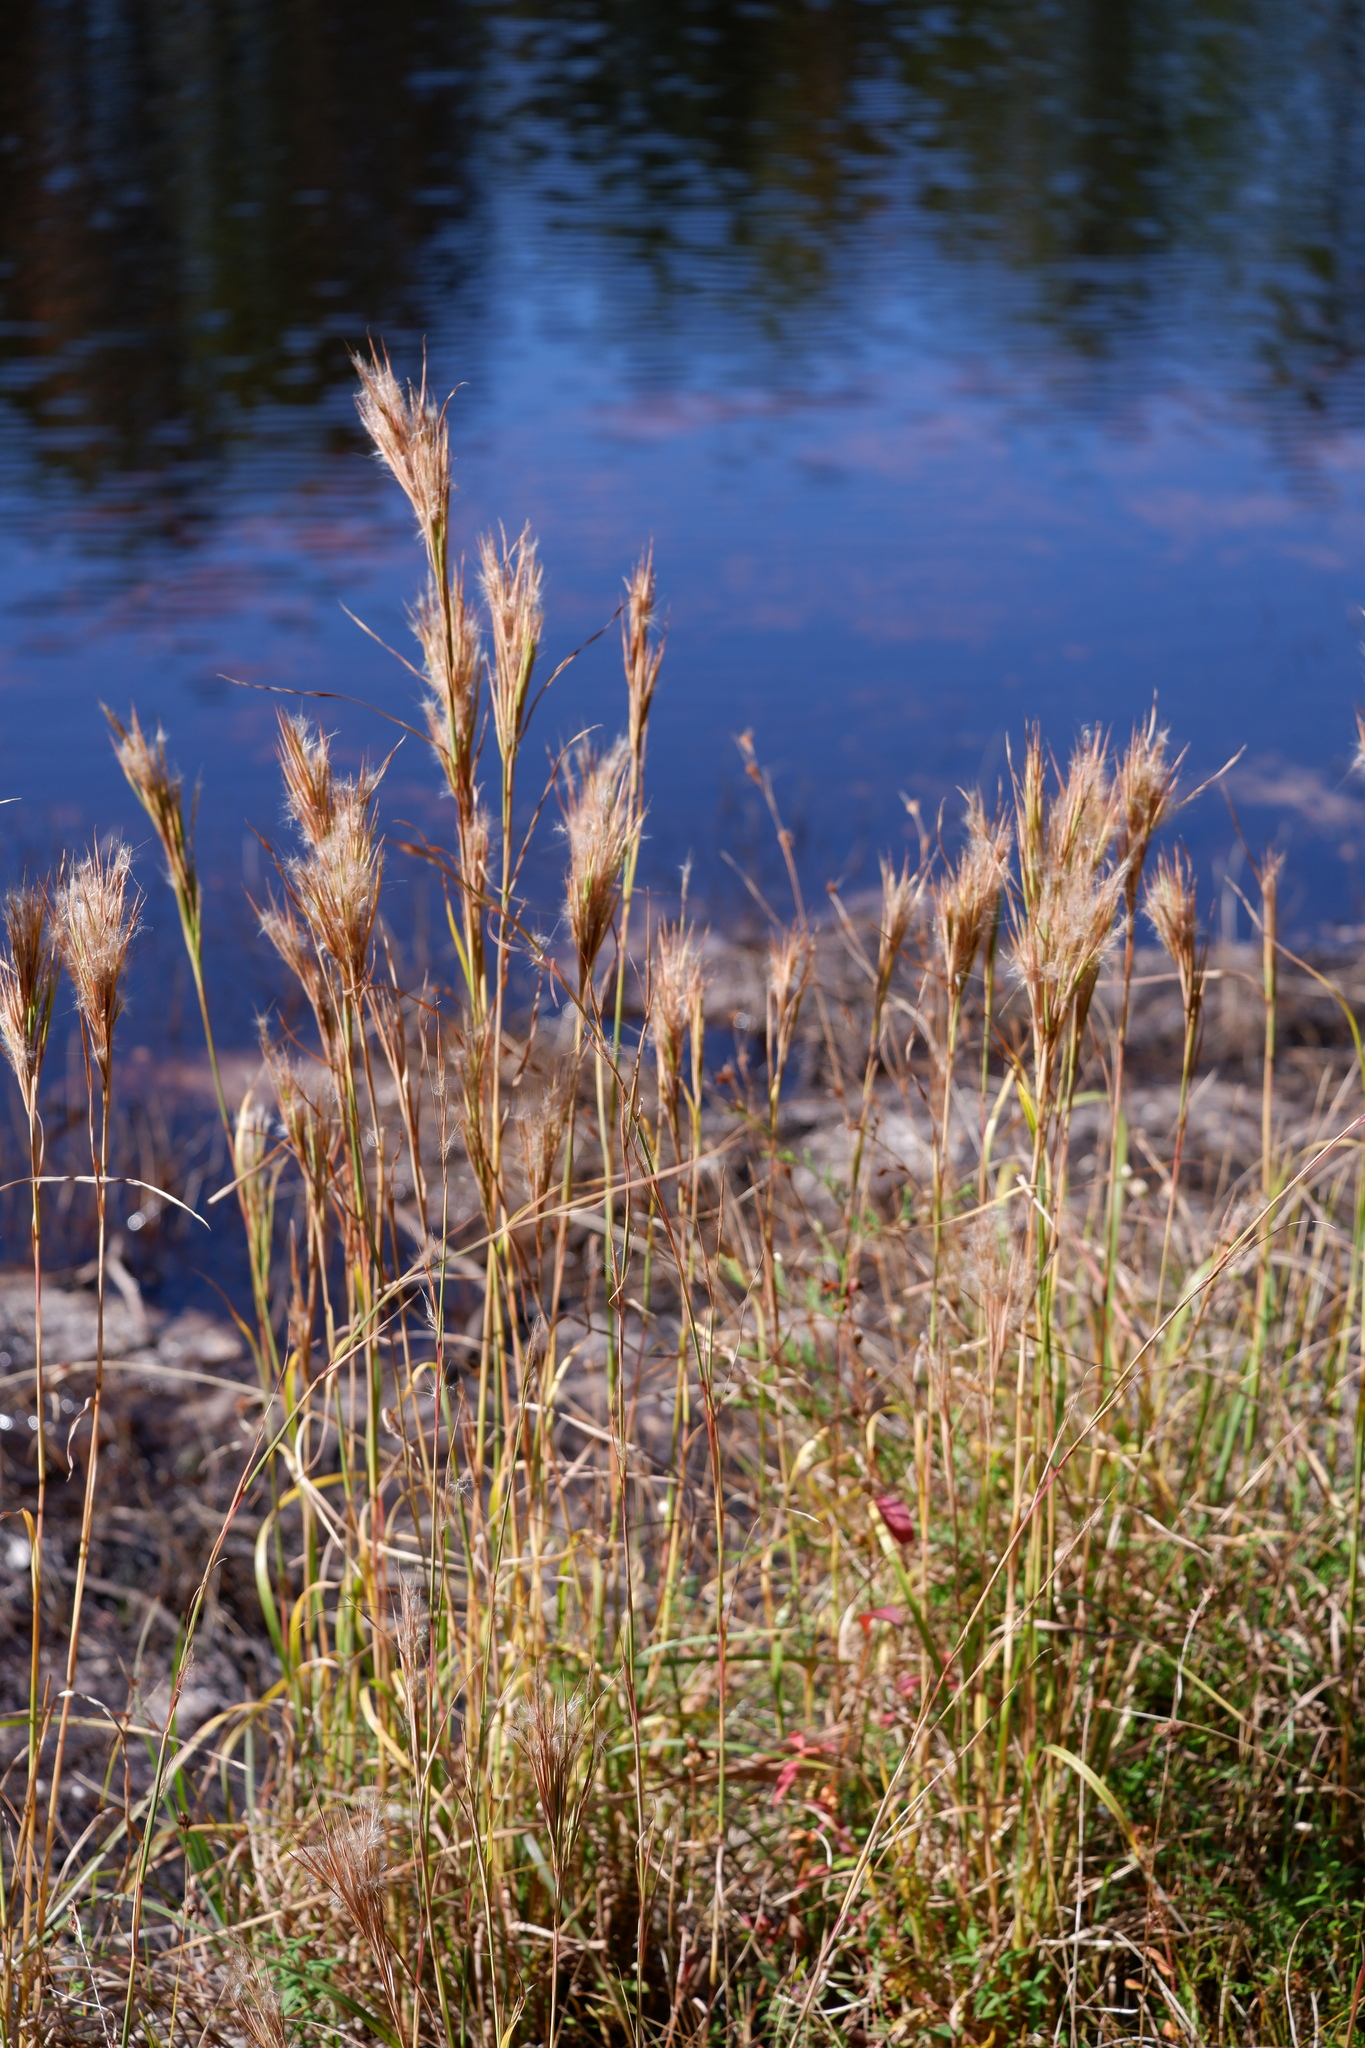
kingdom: Plantae
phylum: Tracheophyta
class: Liliopsida
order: Poales
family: Poaceae
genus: Andropogon
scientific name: Andropogon glomeratus
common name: Bushy beard grass
